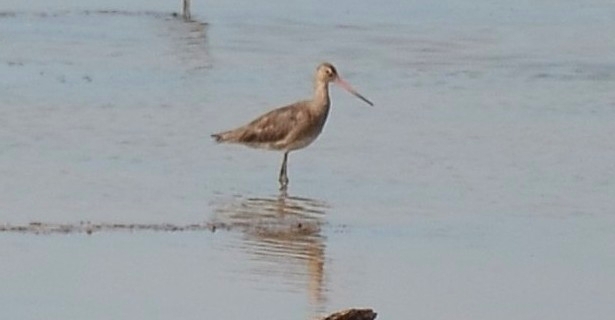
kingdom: Animalia
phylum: Chordata
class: Aves
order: Charadriiformes
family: Scolopacidae
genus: Limosa
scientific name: Limosa limosa
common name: Black-tailed godwit
